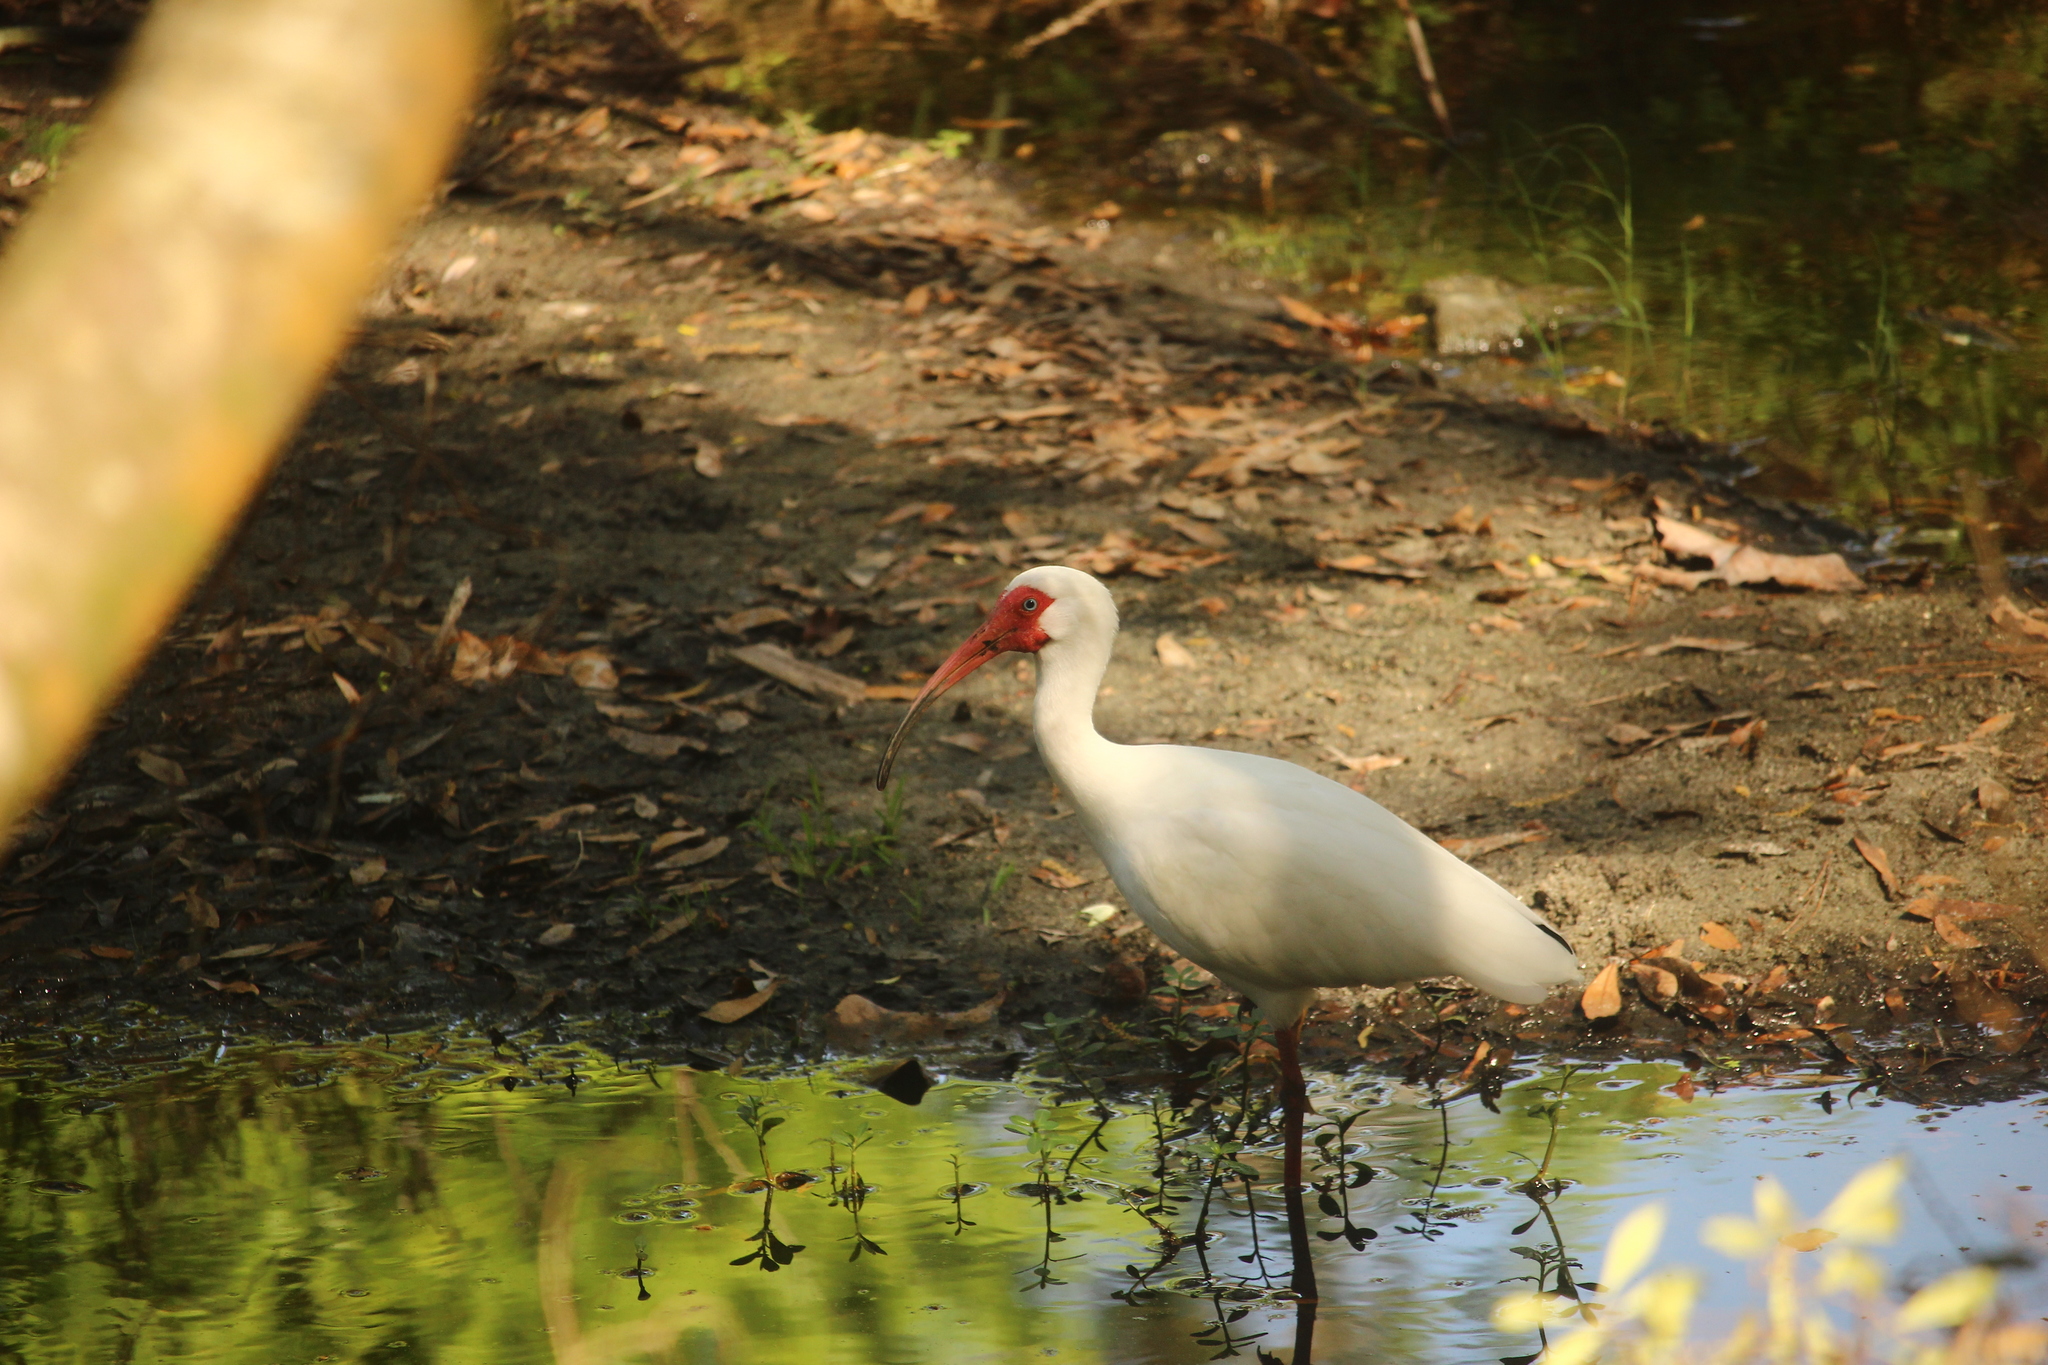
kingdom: Animalia
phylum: Chordata
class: Aves
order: Pelecaniformes
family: Threskiornithidae
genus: Eudocimus
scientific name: Eudocimus albus
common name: White ibis
